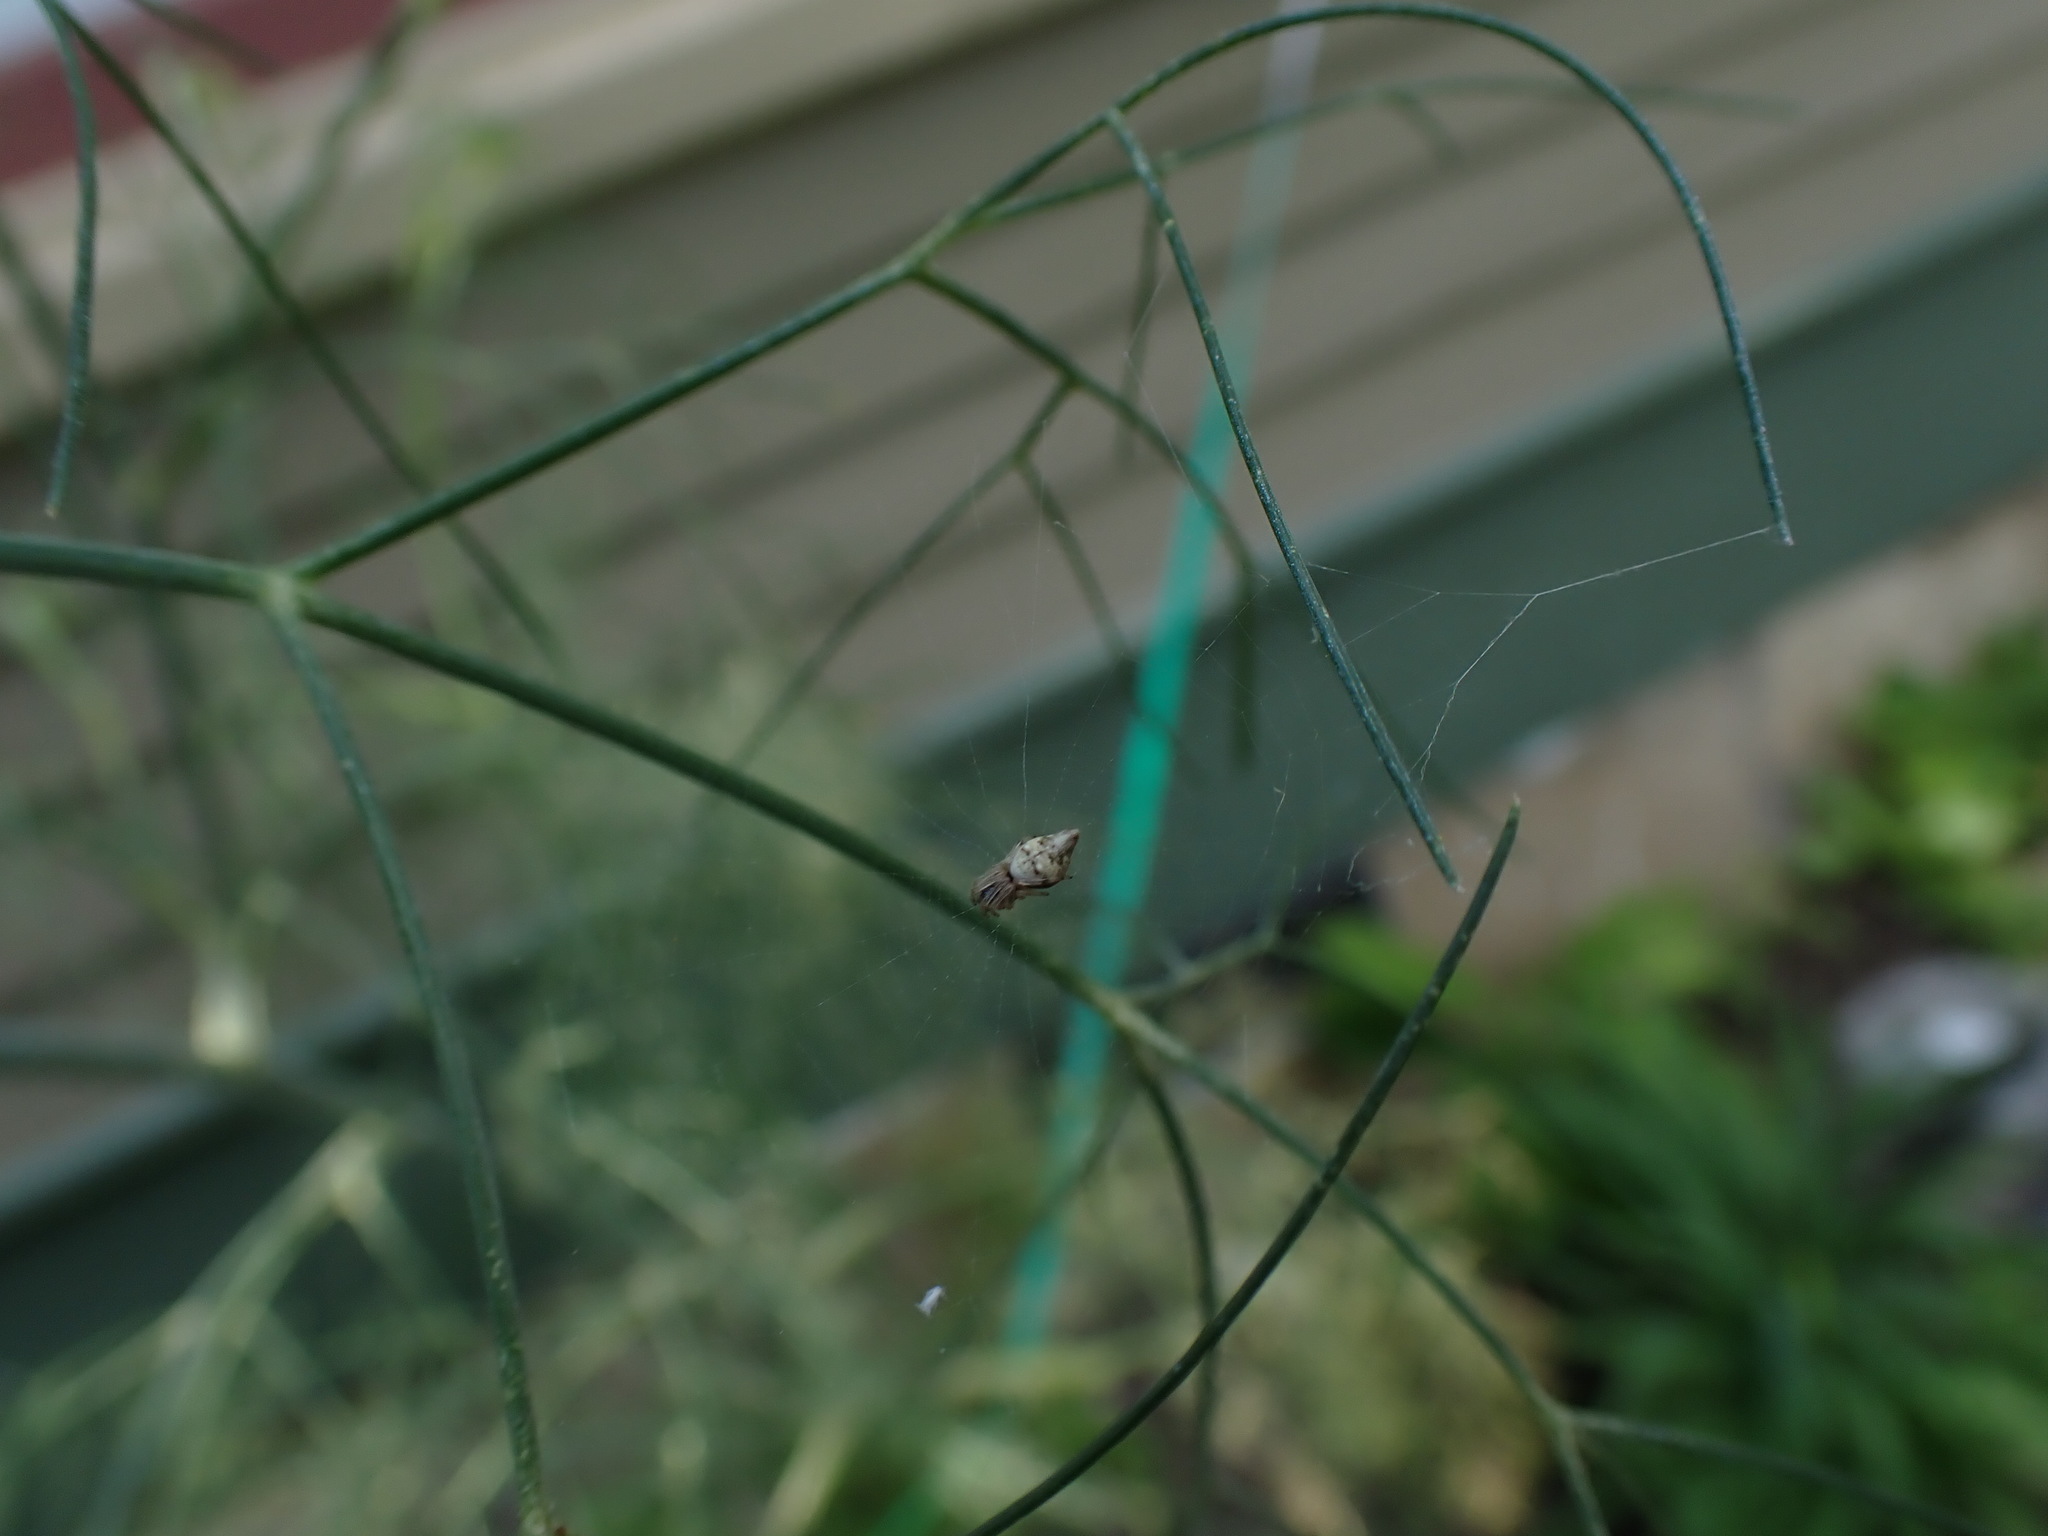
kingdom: Animalia
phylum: Arthropoda
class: Arachnida
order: Araneae
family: Araneidae
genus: Cyclosa
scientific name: Cyclosa turbinata
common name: Orb weavers
